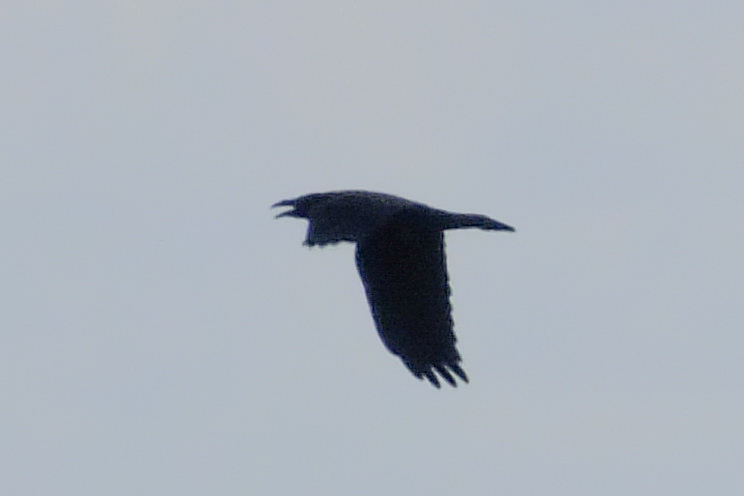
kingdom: Animalia
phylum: Chordata
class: Aves
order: Passeriformes
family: Corvidae
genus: Corvus
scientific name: Corvus corax
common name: Common raven
